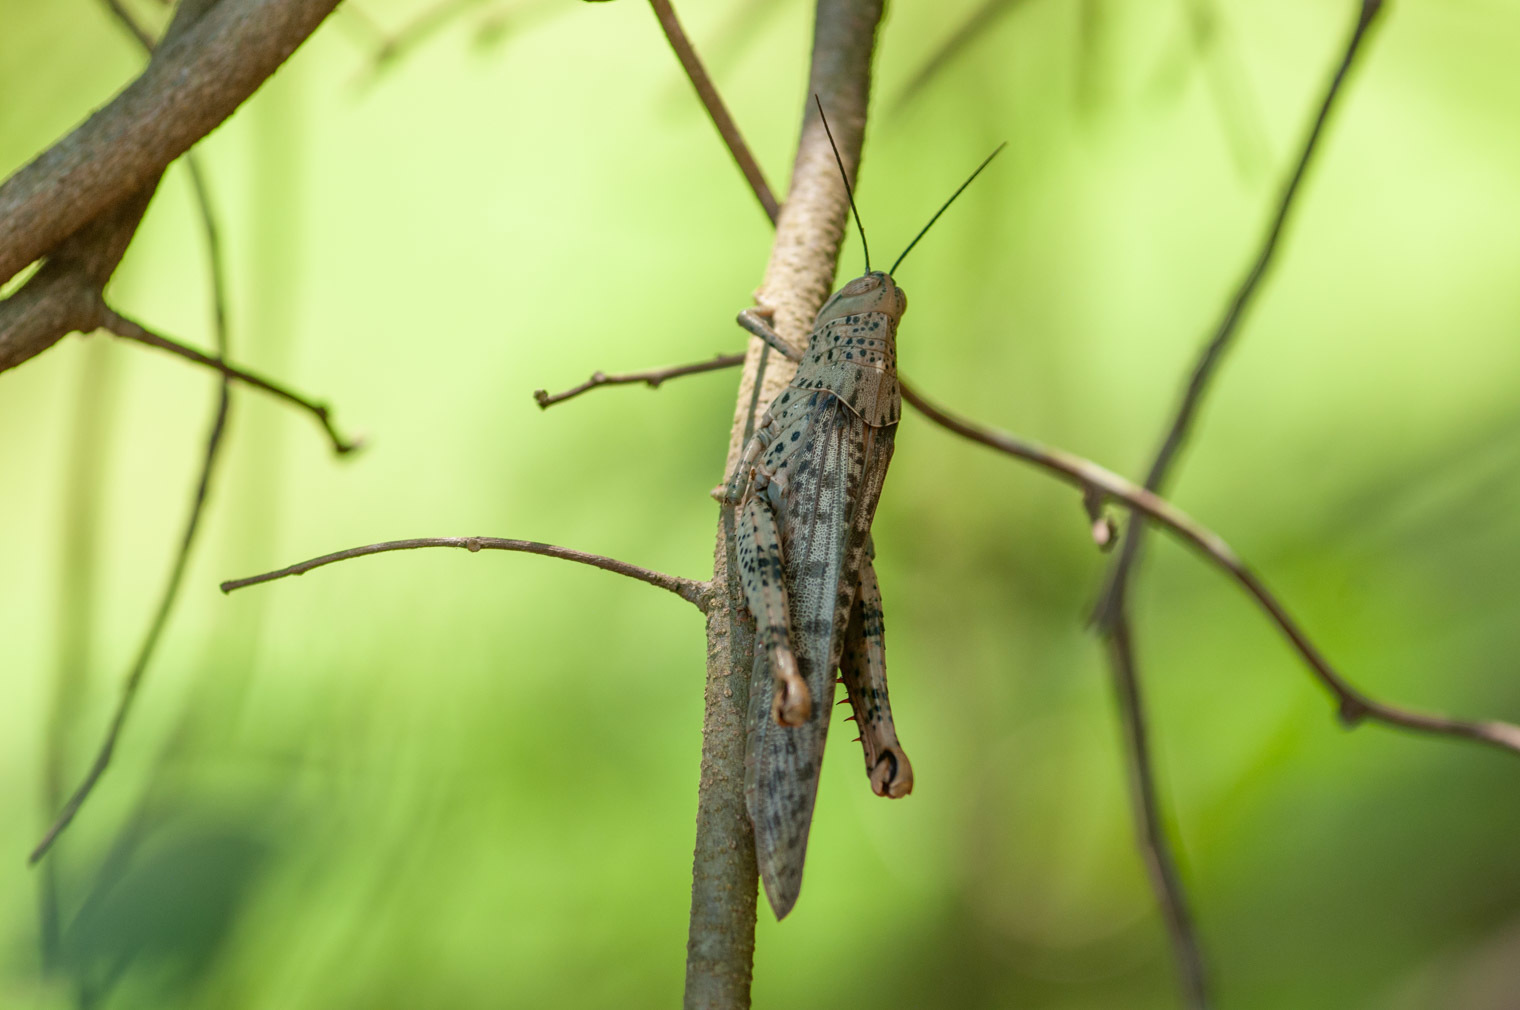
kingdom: Animalia
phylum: Arthropoda
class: Insecta
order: Orthoptera
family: Acrididae
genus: Valanga
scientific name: Valanga irregularis
